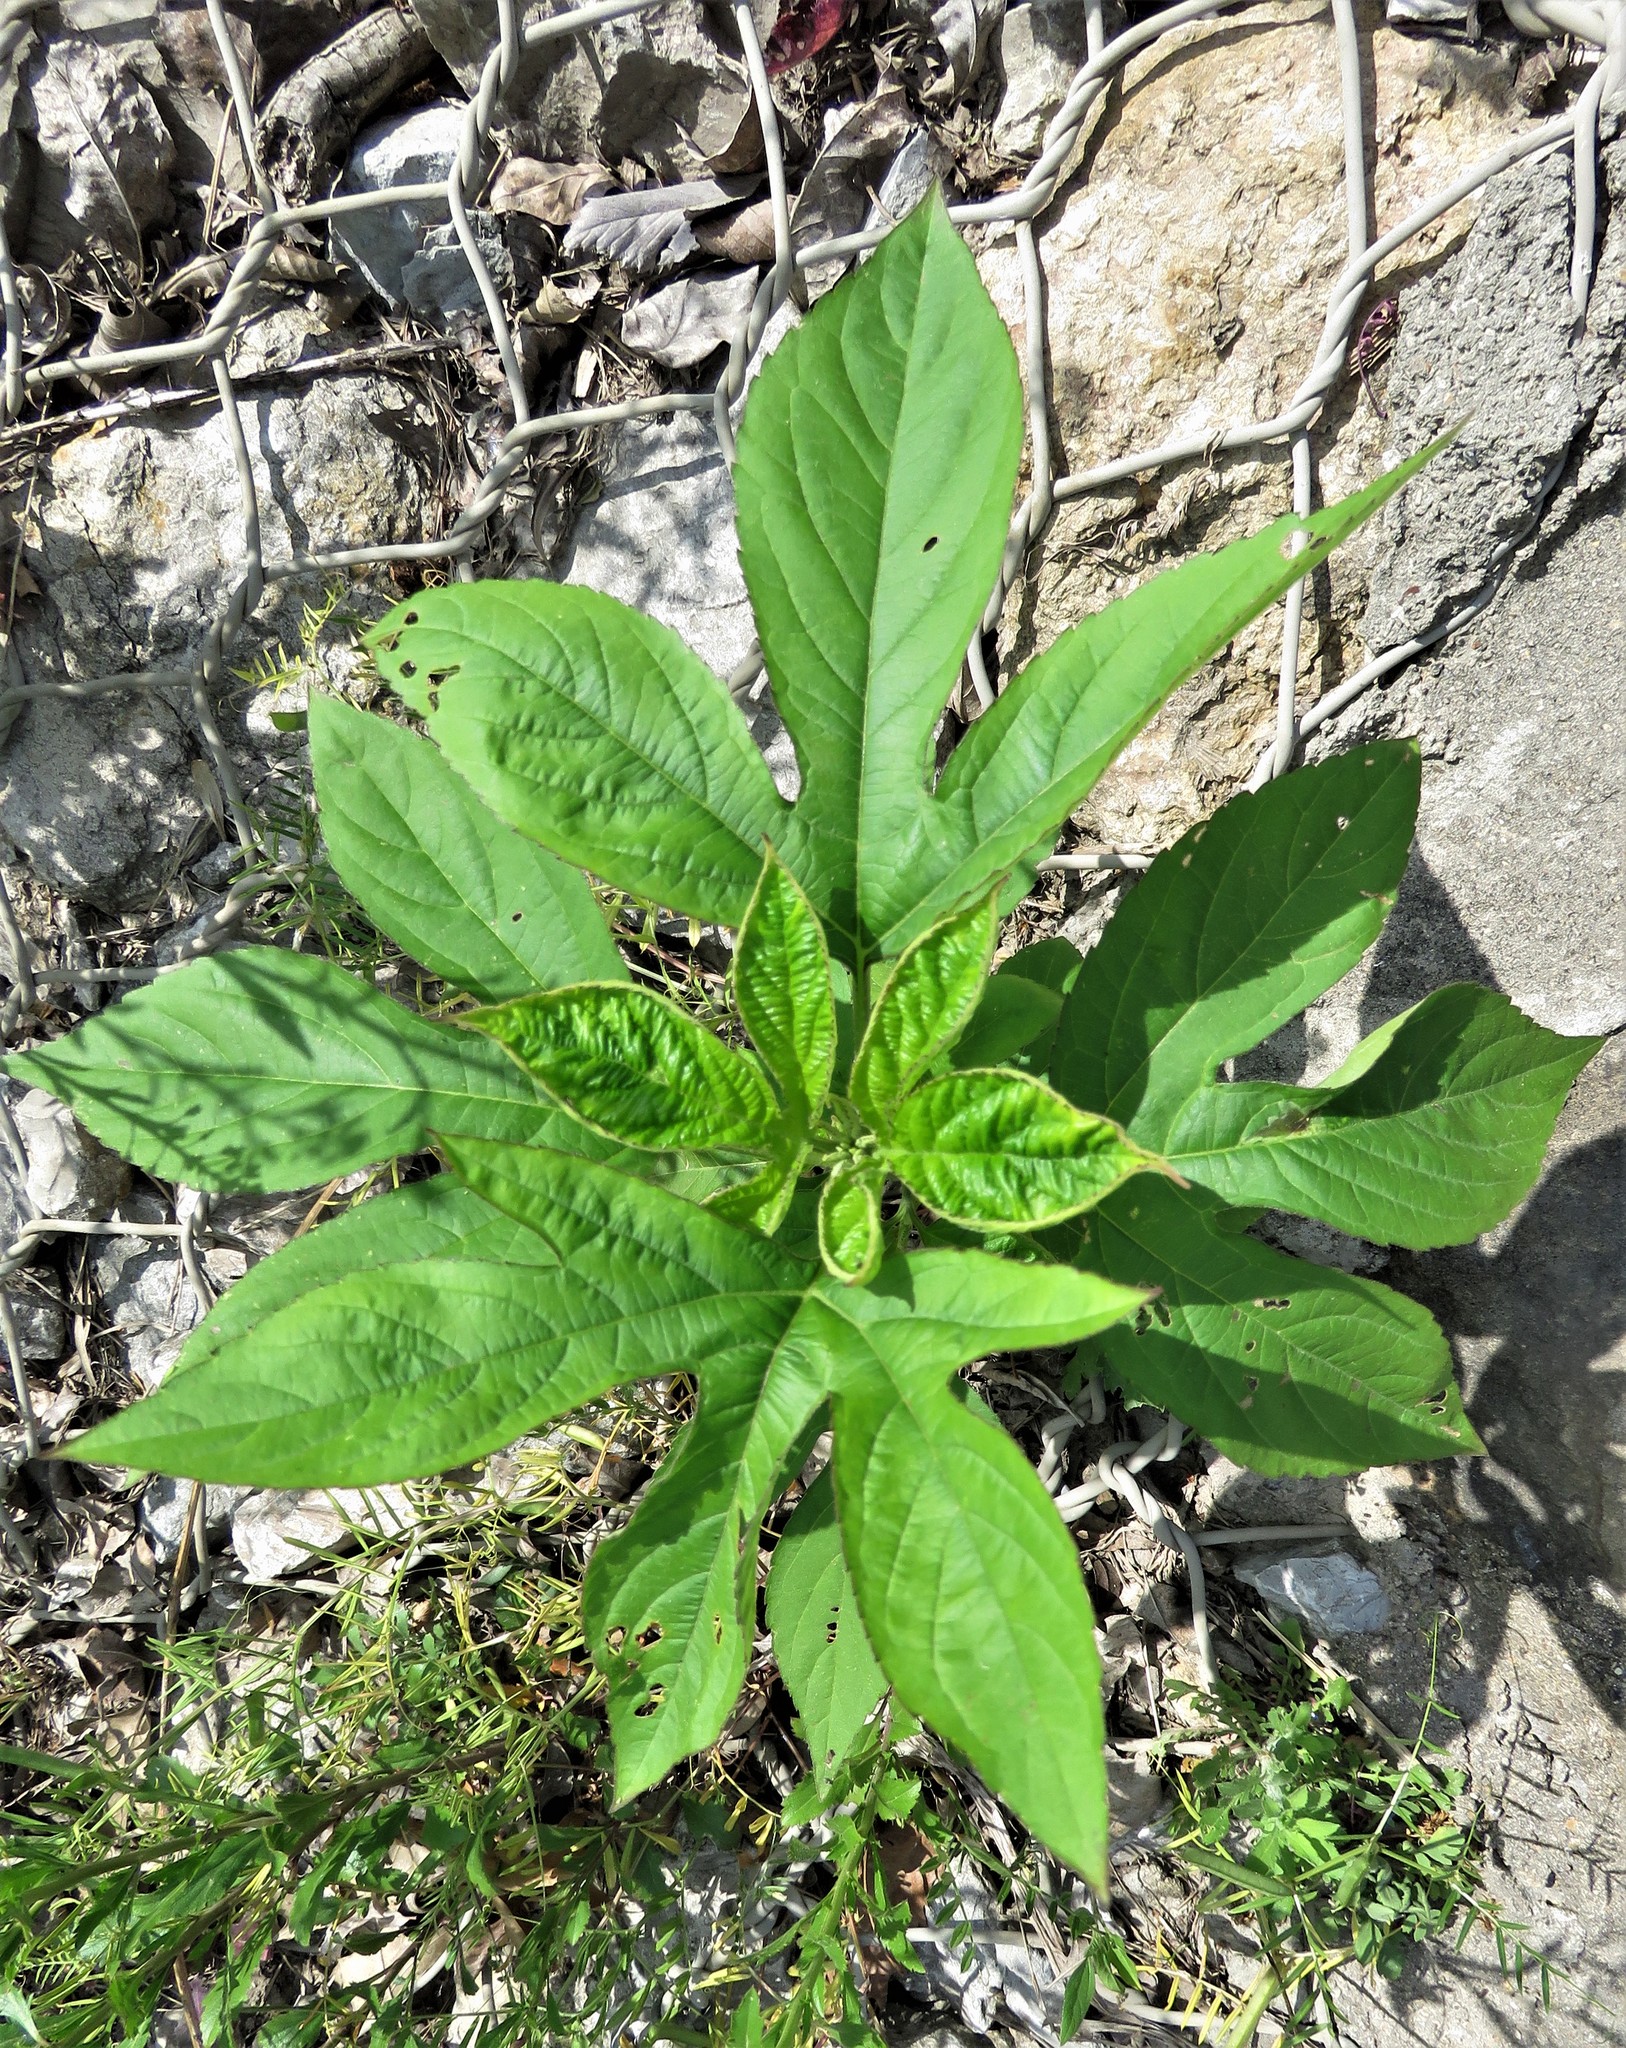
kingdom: Plantae
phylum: Tracheophyta
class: Magnoliopsida
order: Asterales
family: Asteraceae
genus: Ambrosia
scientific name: Ambrosia trifida
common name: Giant ragweed
